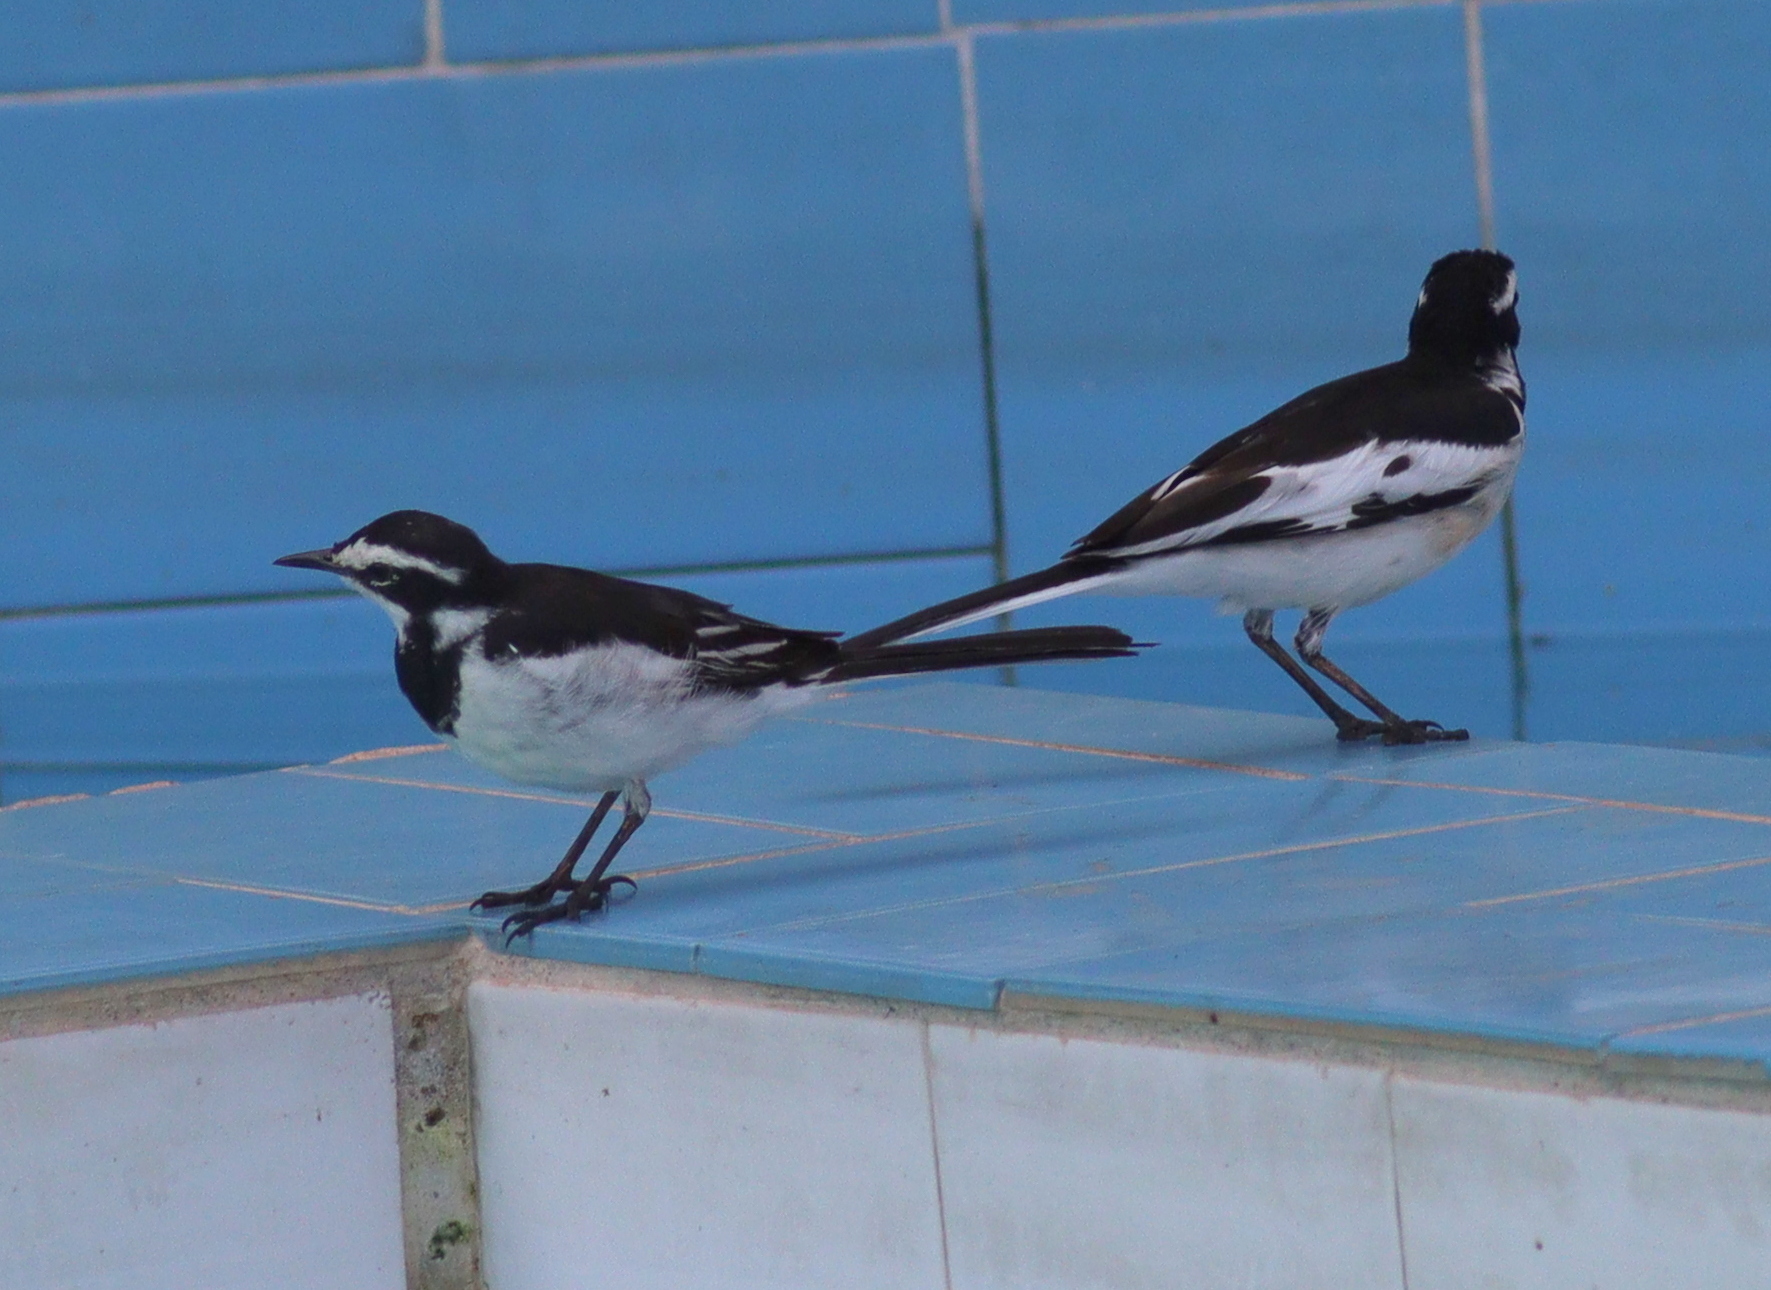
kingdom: Animalia
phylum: Chordata
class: Aves
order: Passeriformes
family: Motacillidae
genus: Motacilla
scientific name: Motacilla aguimp
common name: African pied wagtail
